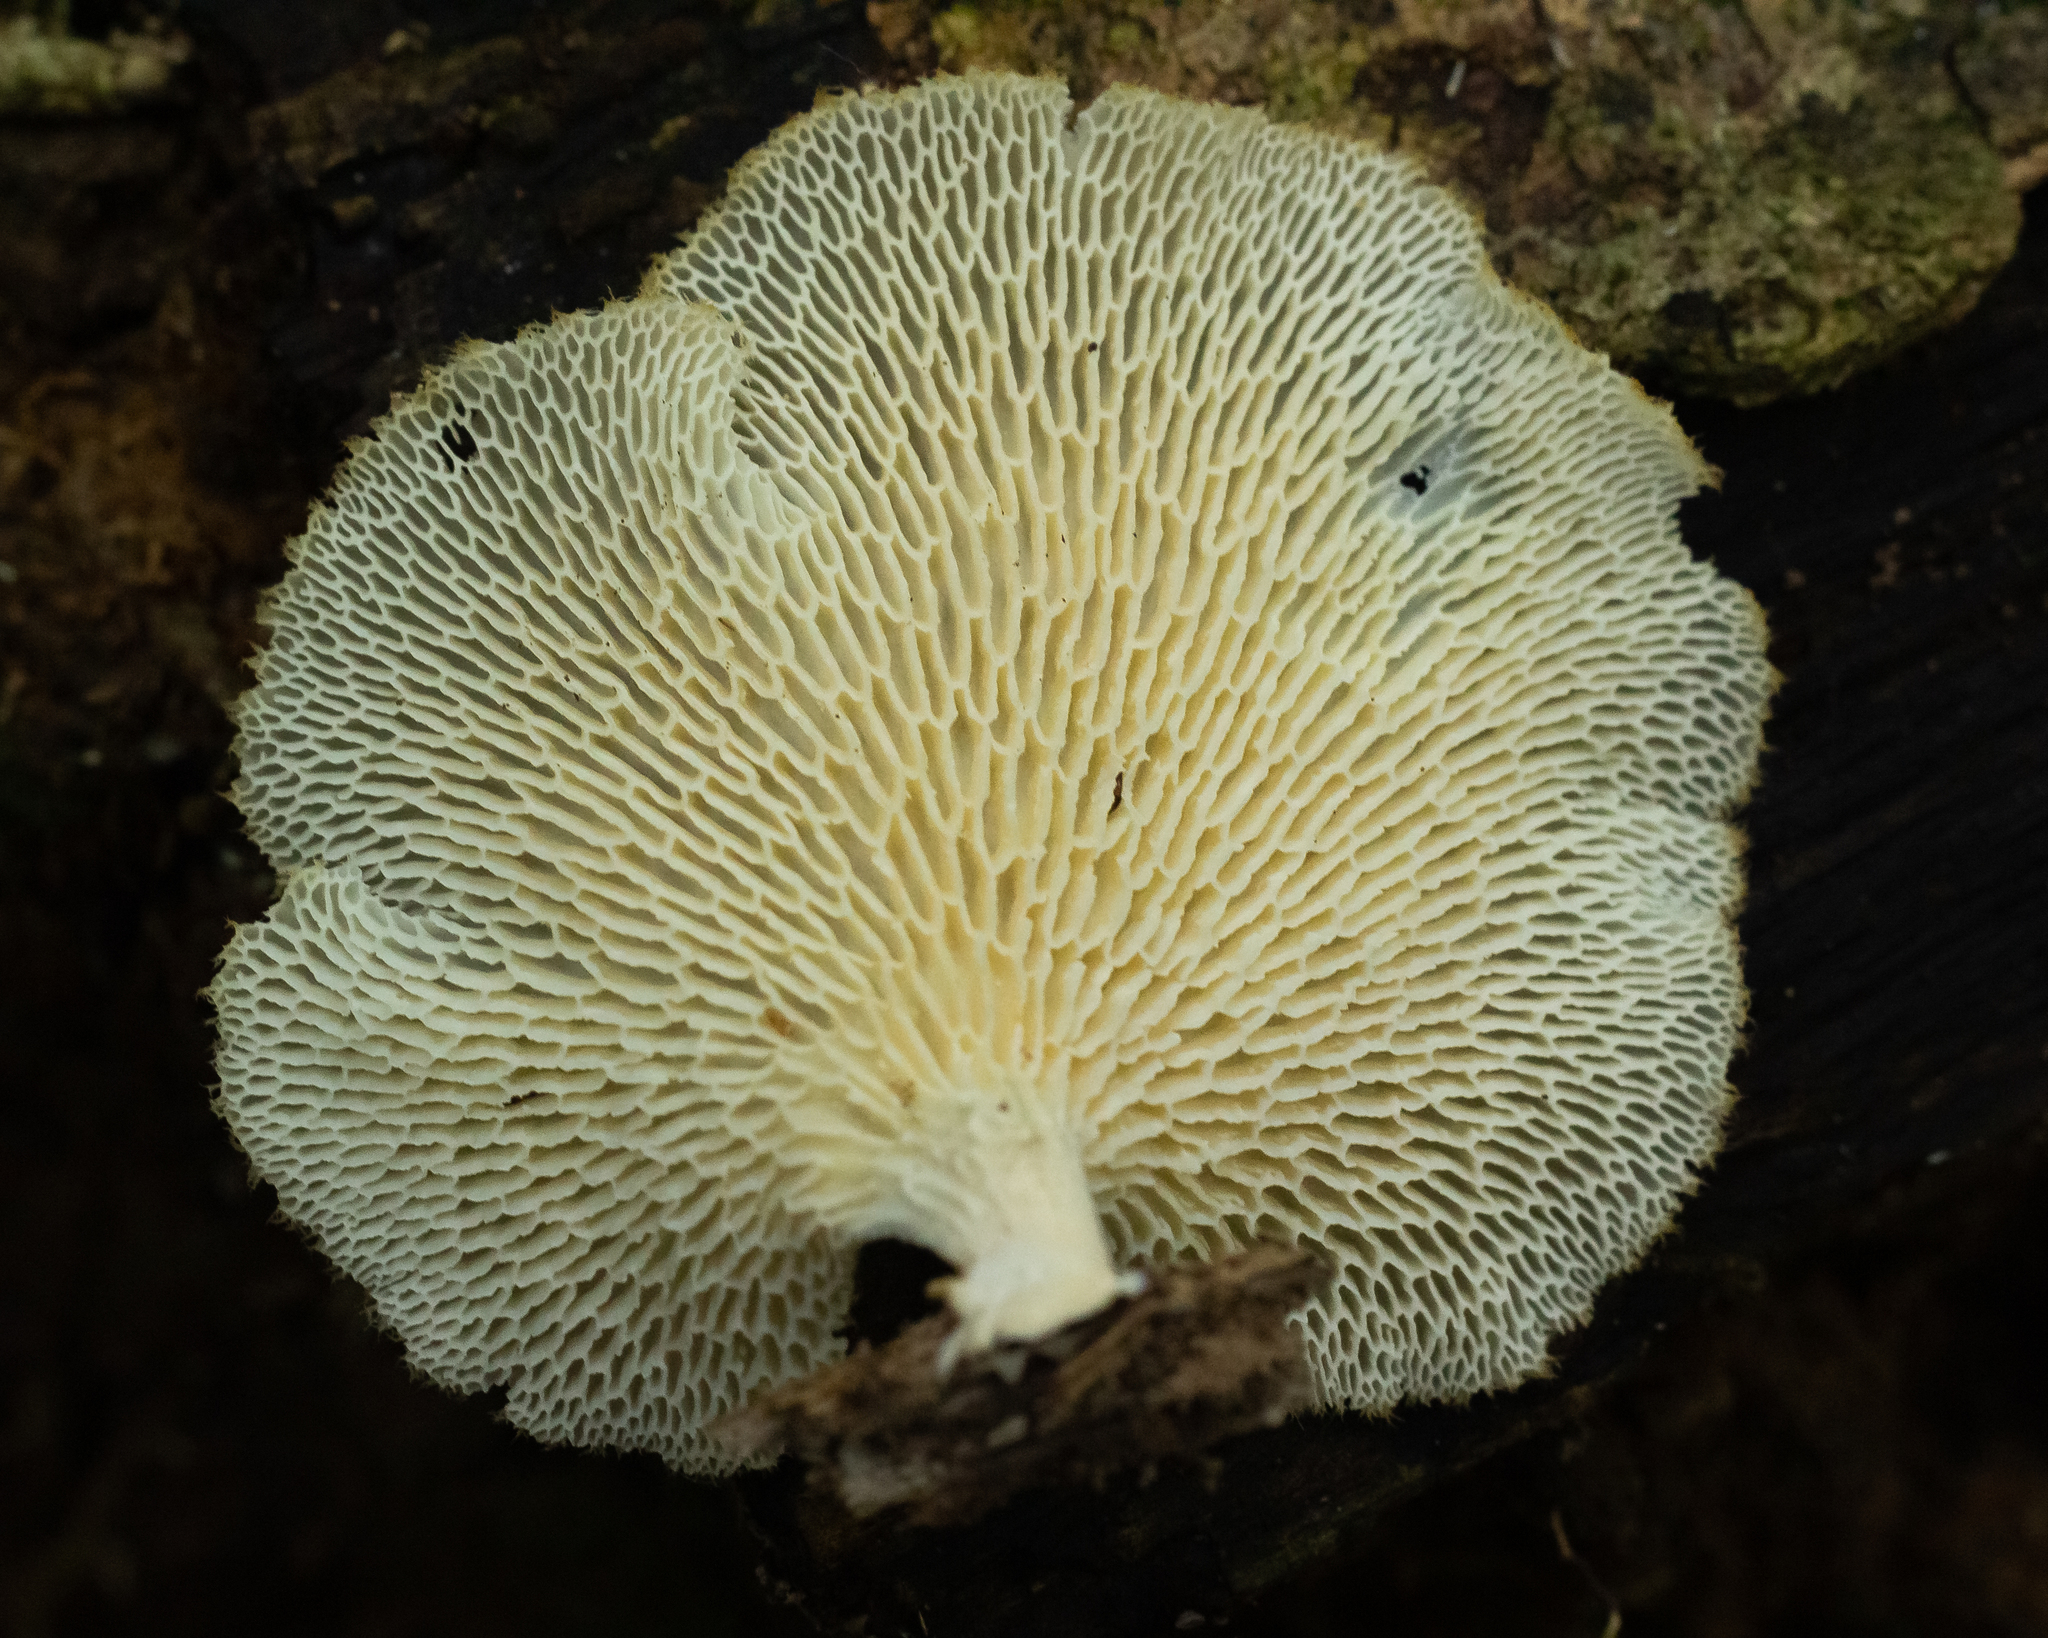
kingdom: Fungi
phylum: Basidiomycota
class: Agaricomycetes
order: Polyporales
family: Polyporaceae
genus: Favolus
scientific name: Favolus tenuiculus
